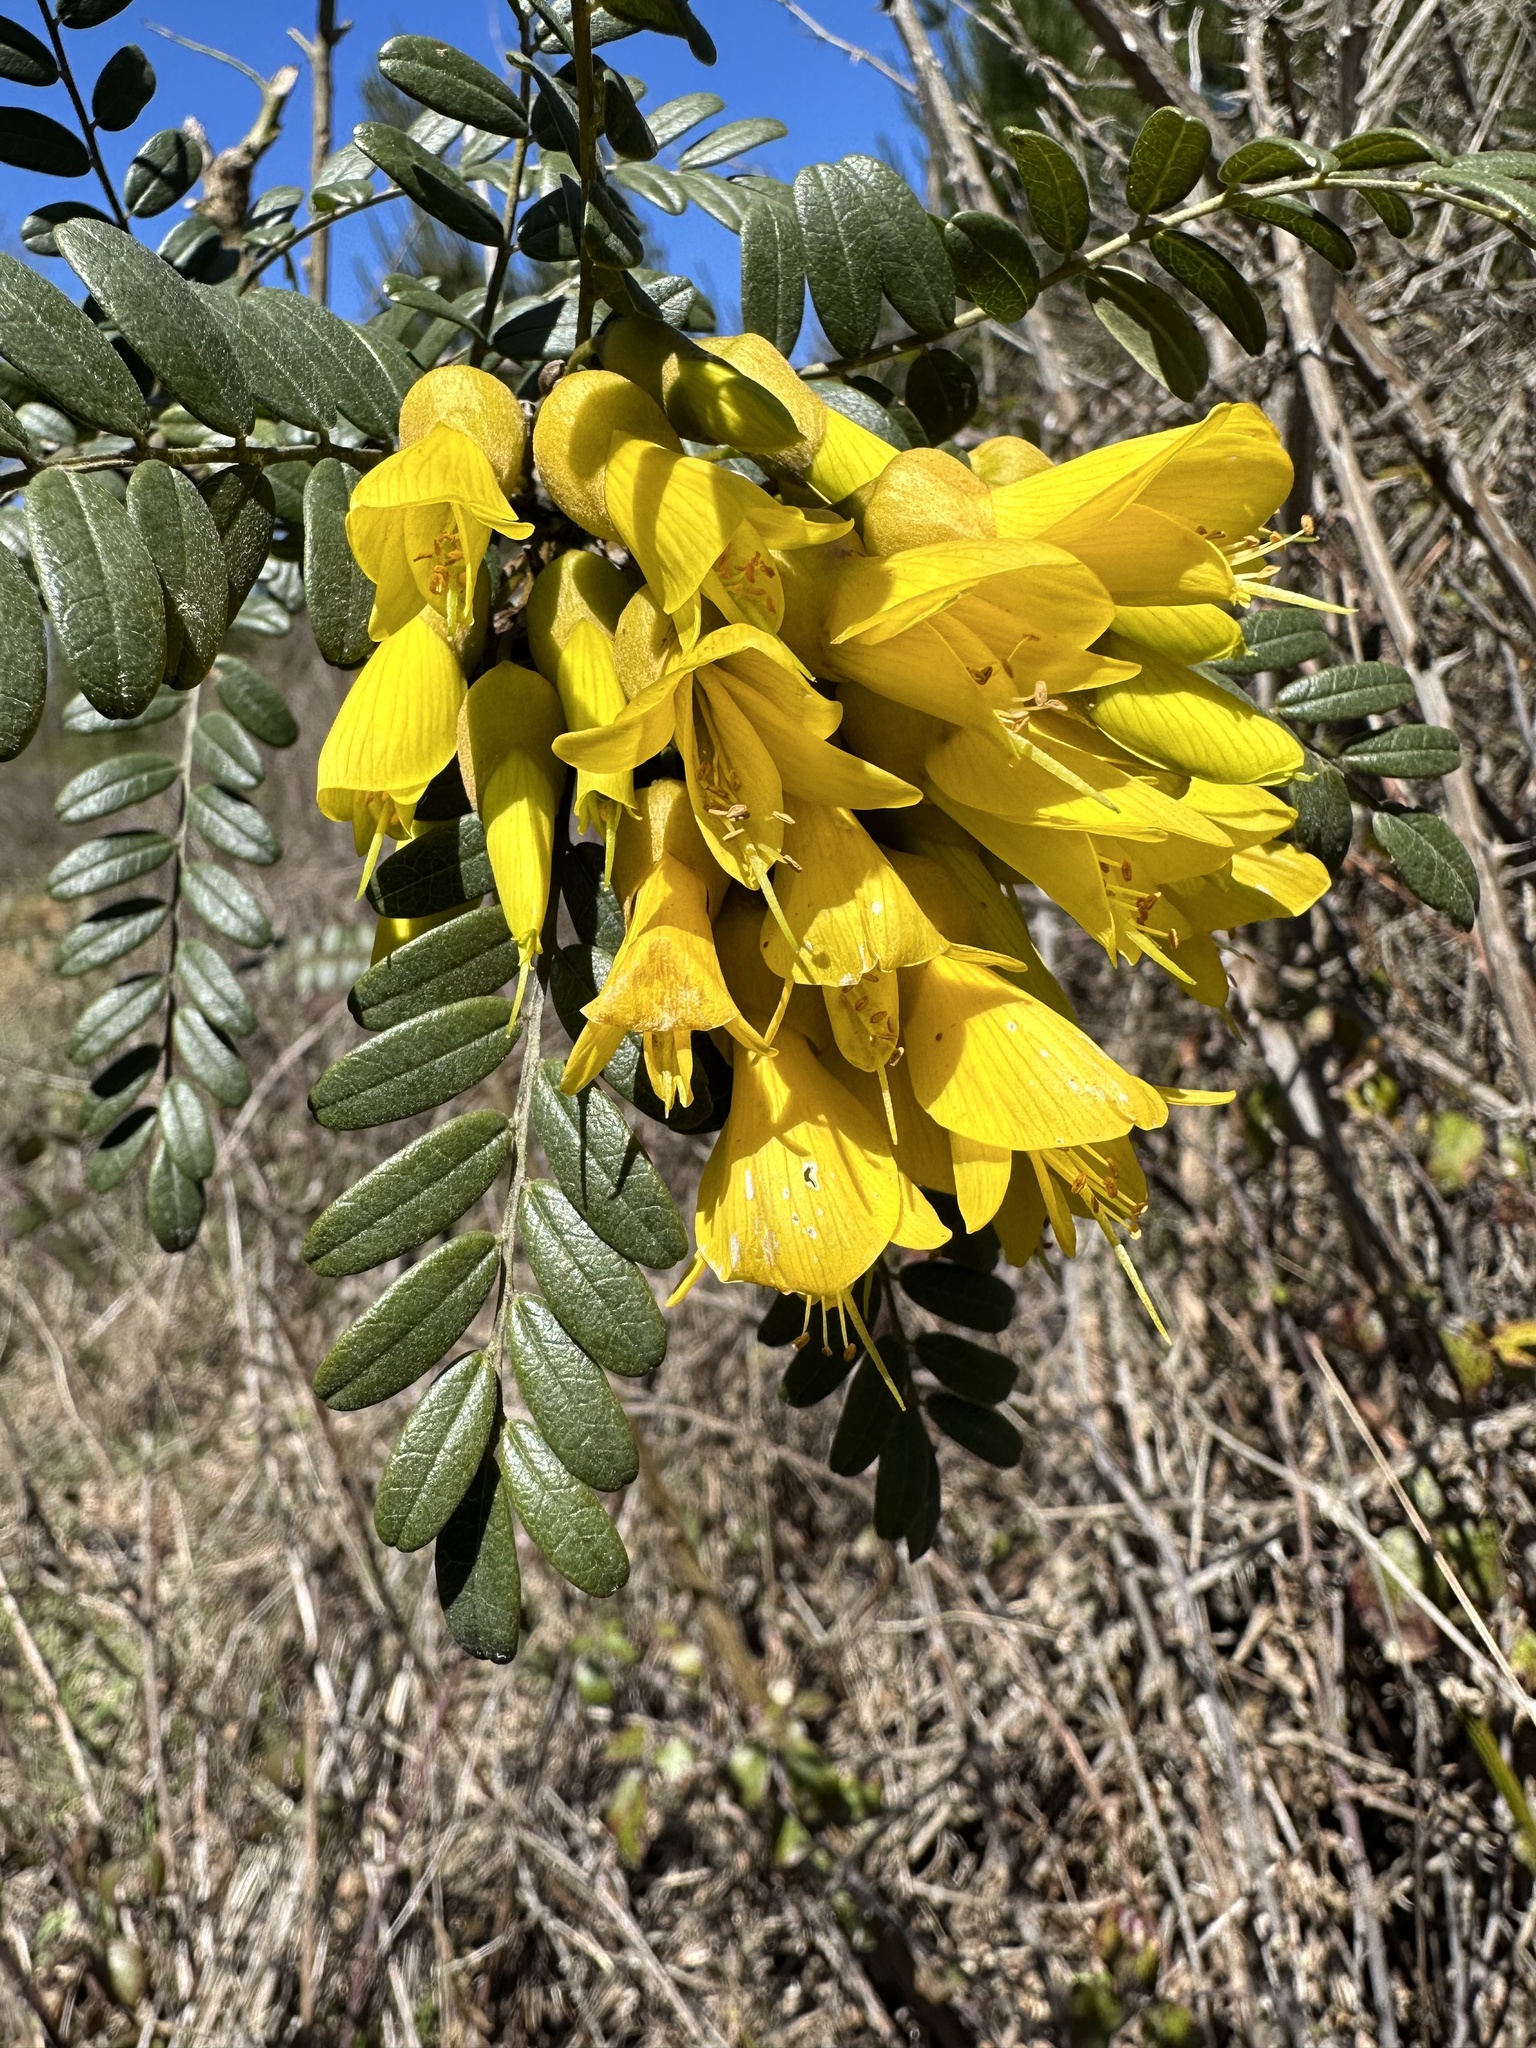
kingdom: Plantae
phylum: Tracheophyta
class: Magnoliopsida
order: Fabales
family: Fabaceae
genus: Sophora
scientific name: Sophora macrocarpa
